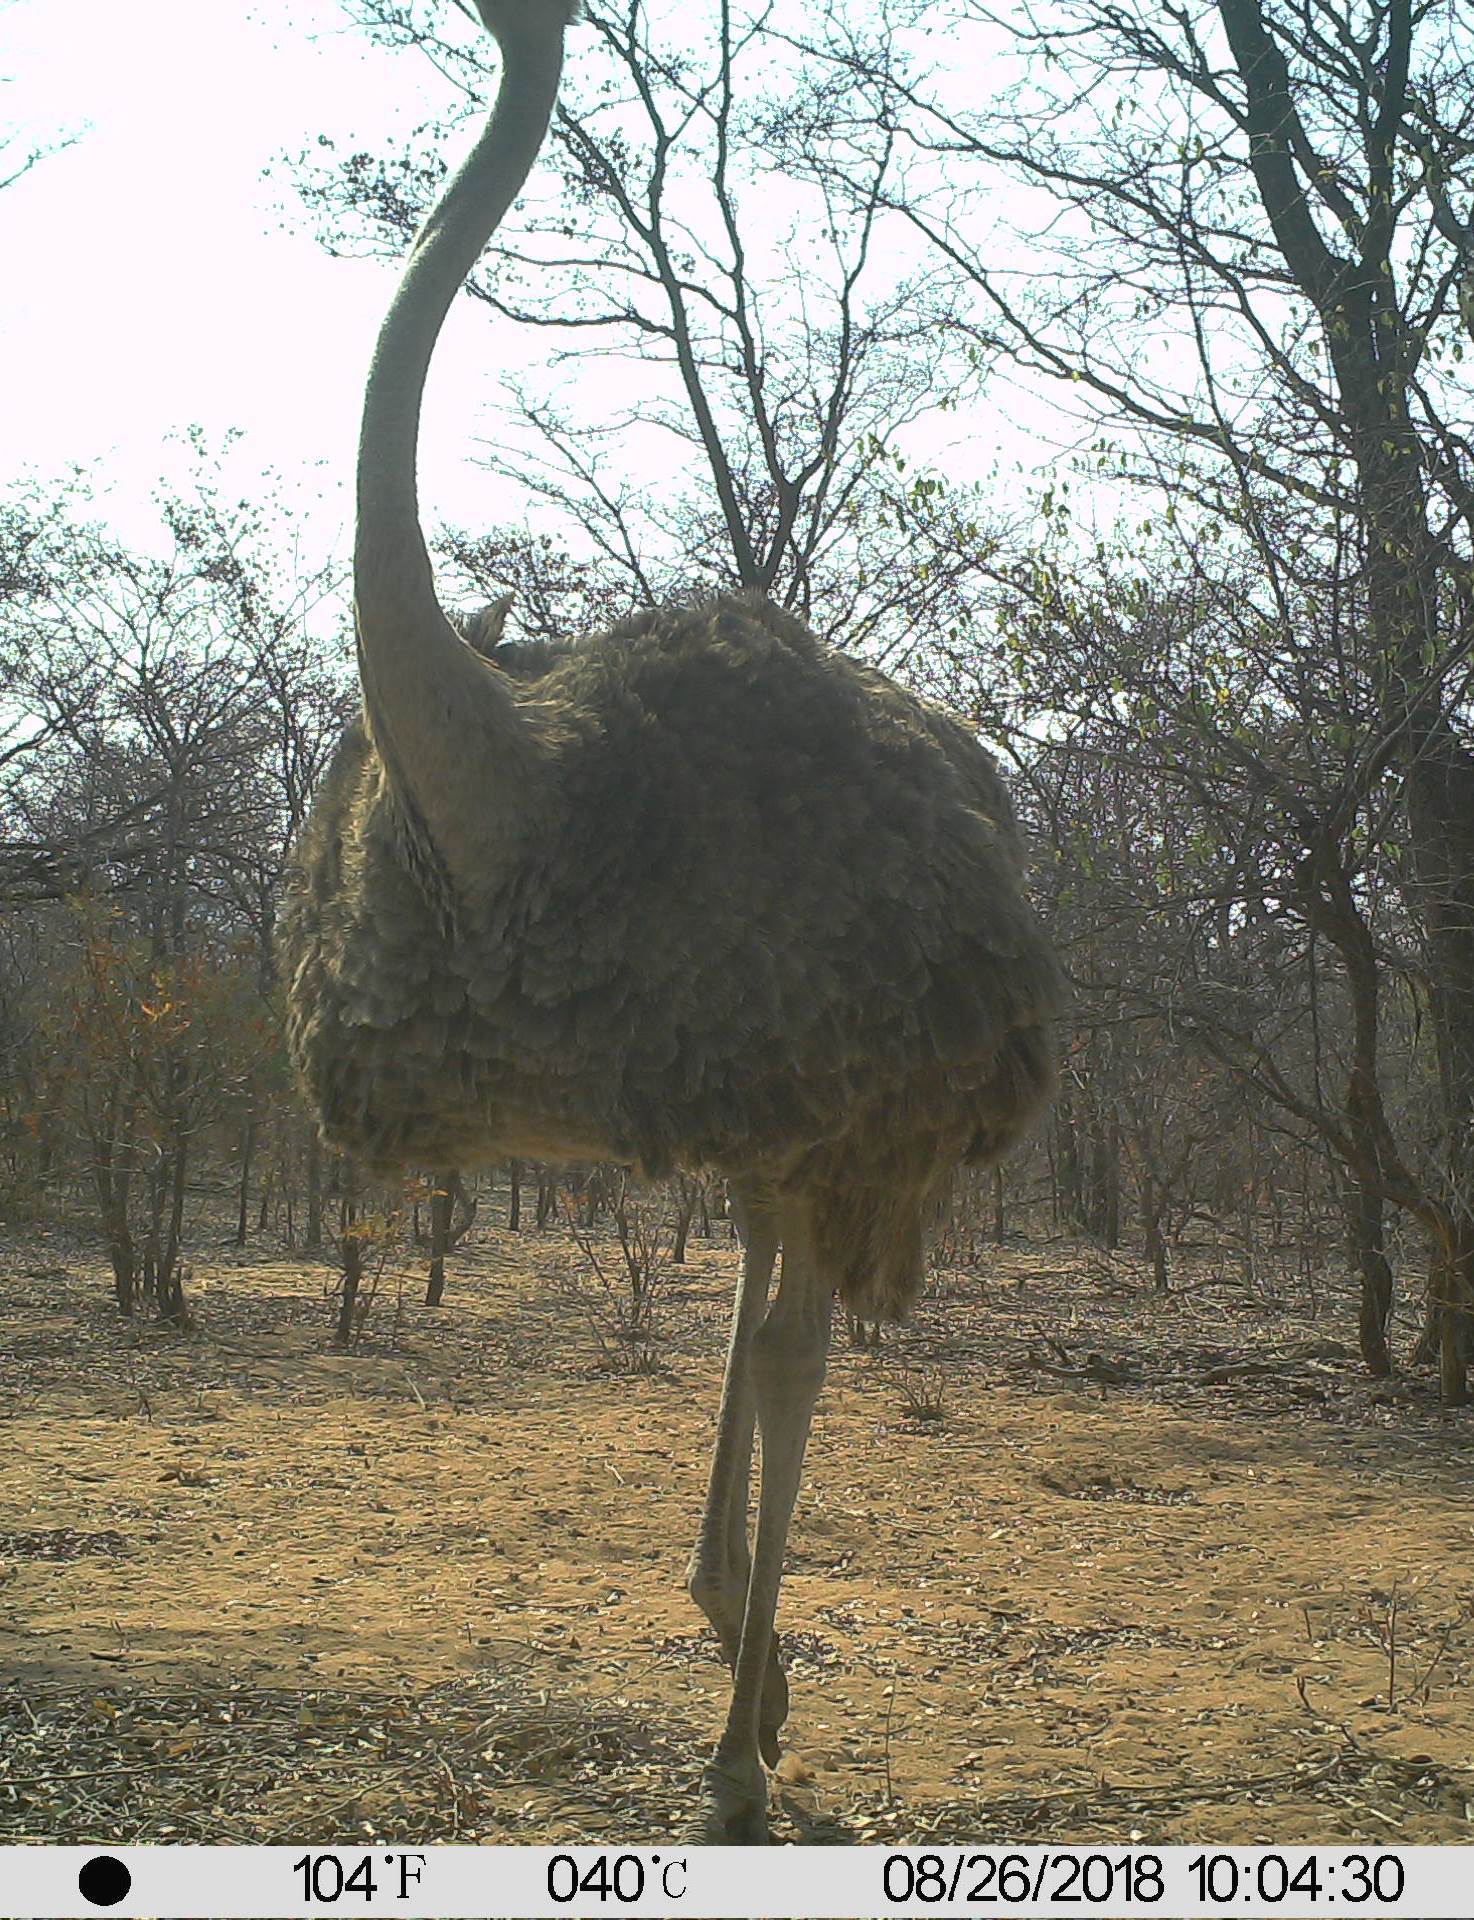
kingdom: Animalia
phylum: Chordata
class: Aves
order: Struthioniformes
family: Struthionidae
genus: Struthio
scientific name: Struthio camelus
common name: Common ostrich
